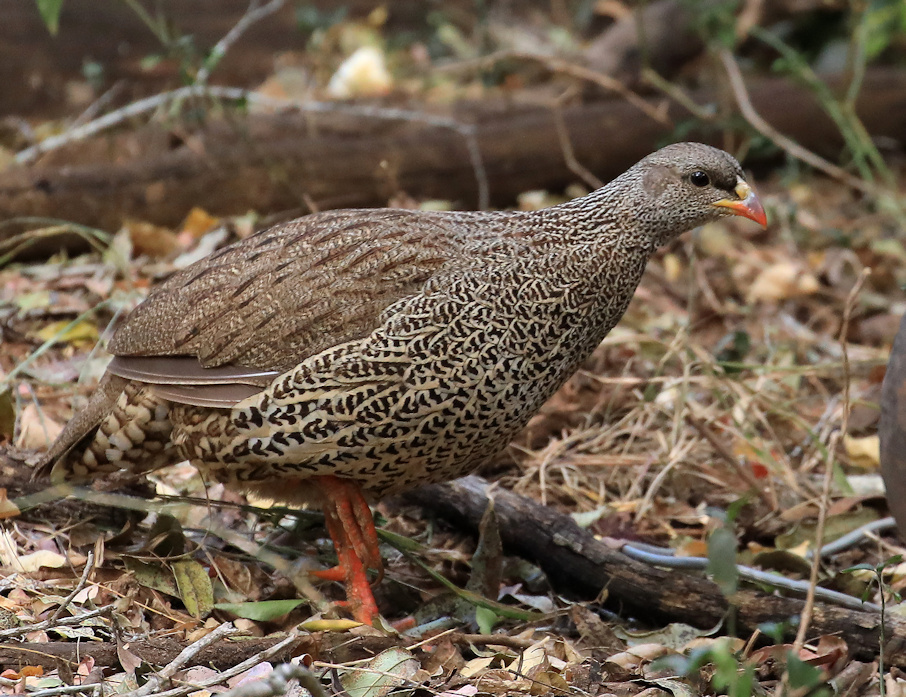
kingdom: Animalia
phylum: Chordata
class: Aves
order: Galliformes
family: Phasianidae
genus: Pternistis
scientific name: Pternistis natalensis
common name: Natal spurfowl
